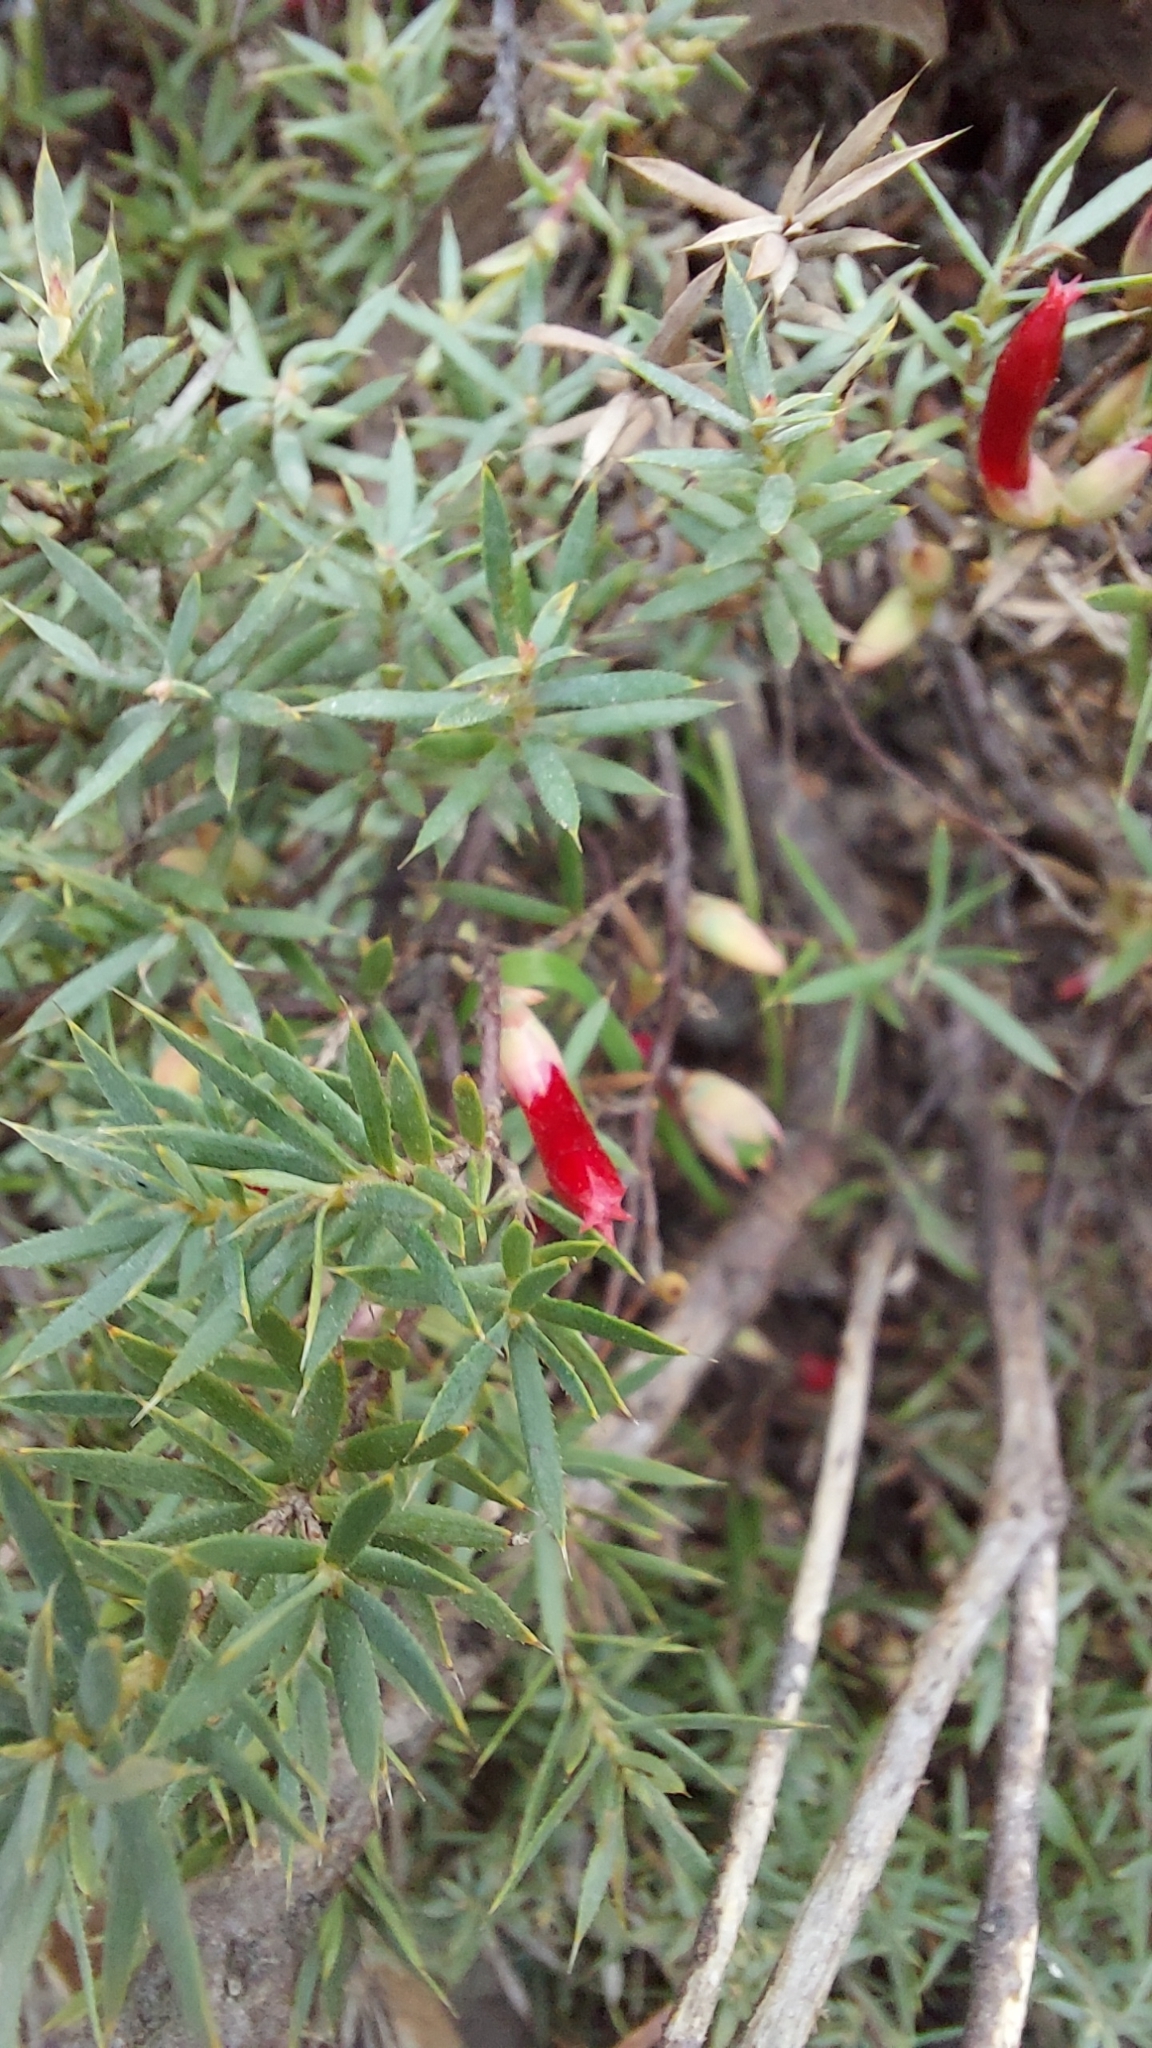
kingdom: Plantae
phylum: Tracheophyta
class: Magnoliopsida
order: Ericales
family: Ericaceae
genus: Styphelia
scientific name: Styphelia humifusa
